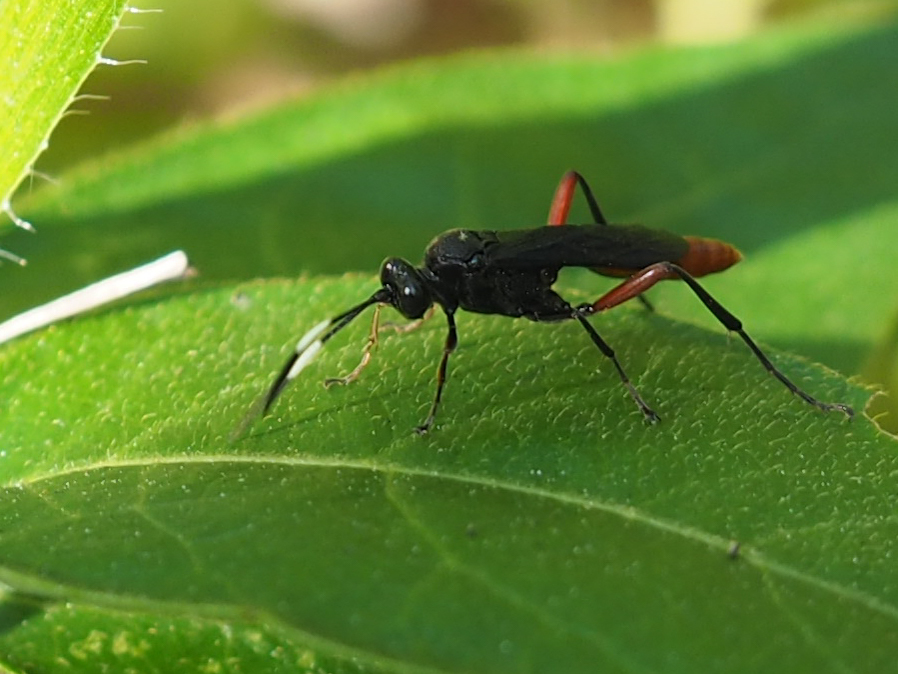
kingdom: Animalia
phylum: Arthropoda
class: Insecta
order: Hymenoptera
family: Ichneumonidae
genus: Limonethe
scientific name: Limonethe maurator
